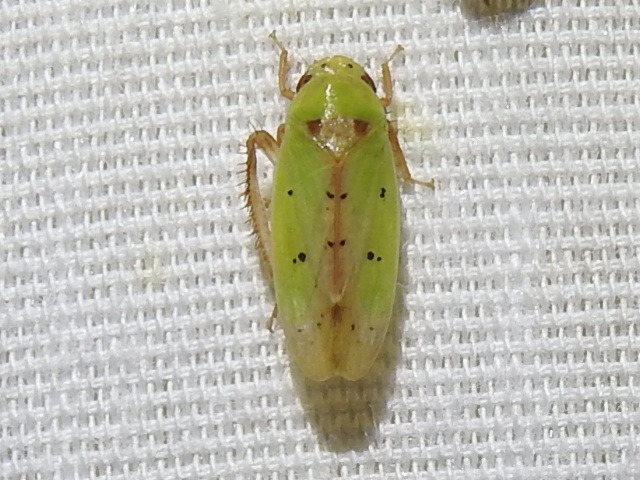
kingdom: Animalia
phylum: Arthropoda
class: Insecta
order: Hemiptera
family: Cicadellidae
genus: Ponana
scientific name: Ponana
